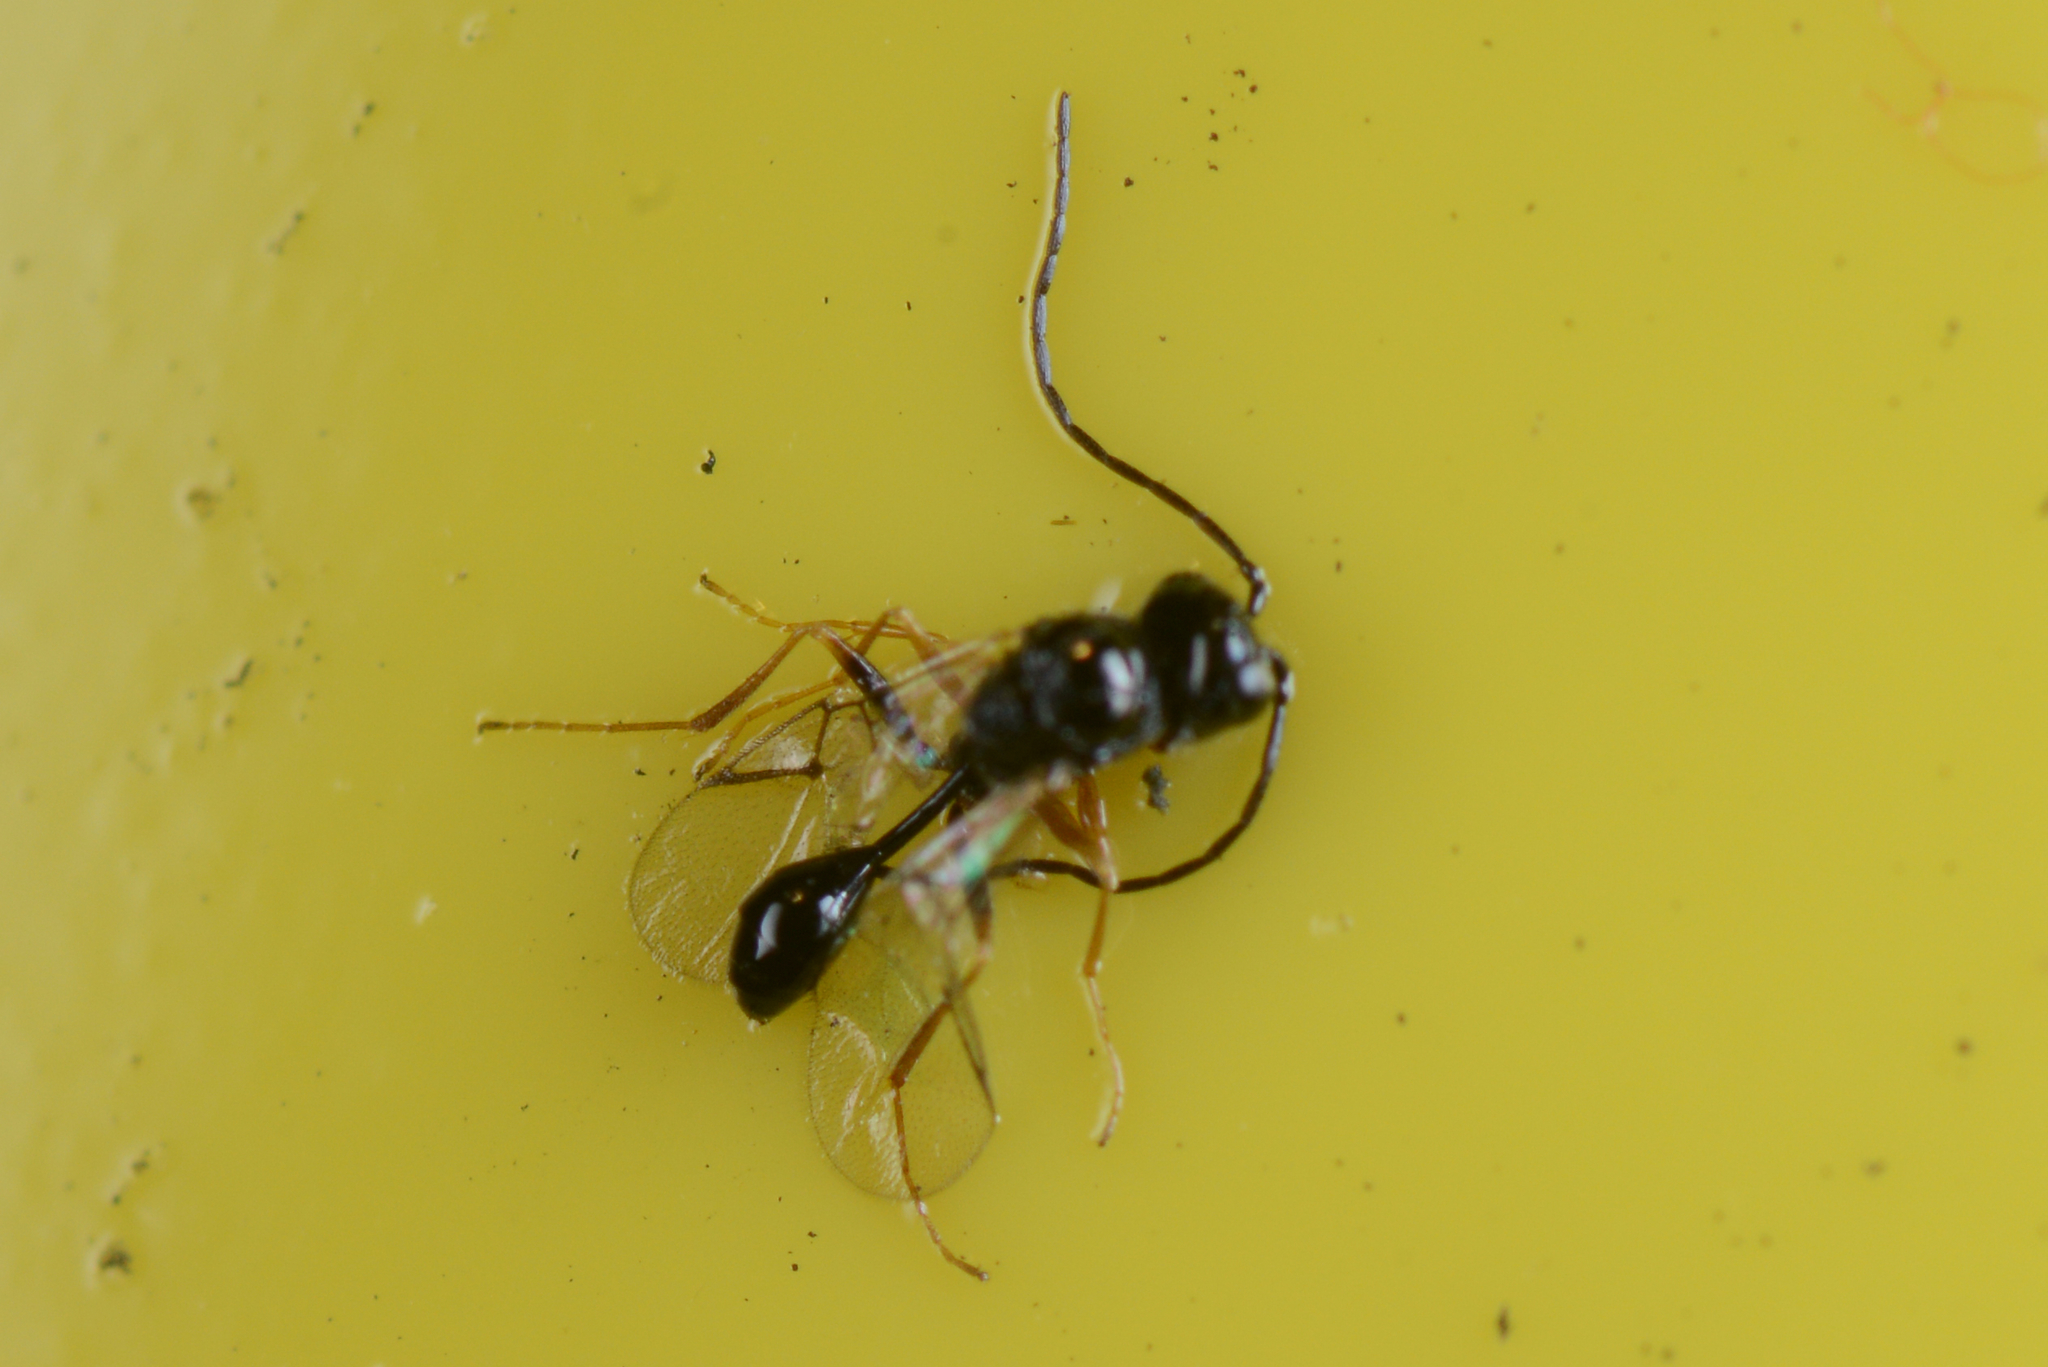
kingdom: Animalia
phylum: Arthropoda
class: Insecta
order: Hymenoptera
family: Figitidae
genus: Anacharis
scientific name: Anacharis zealandica
